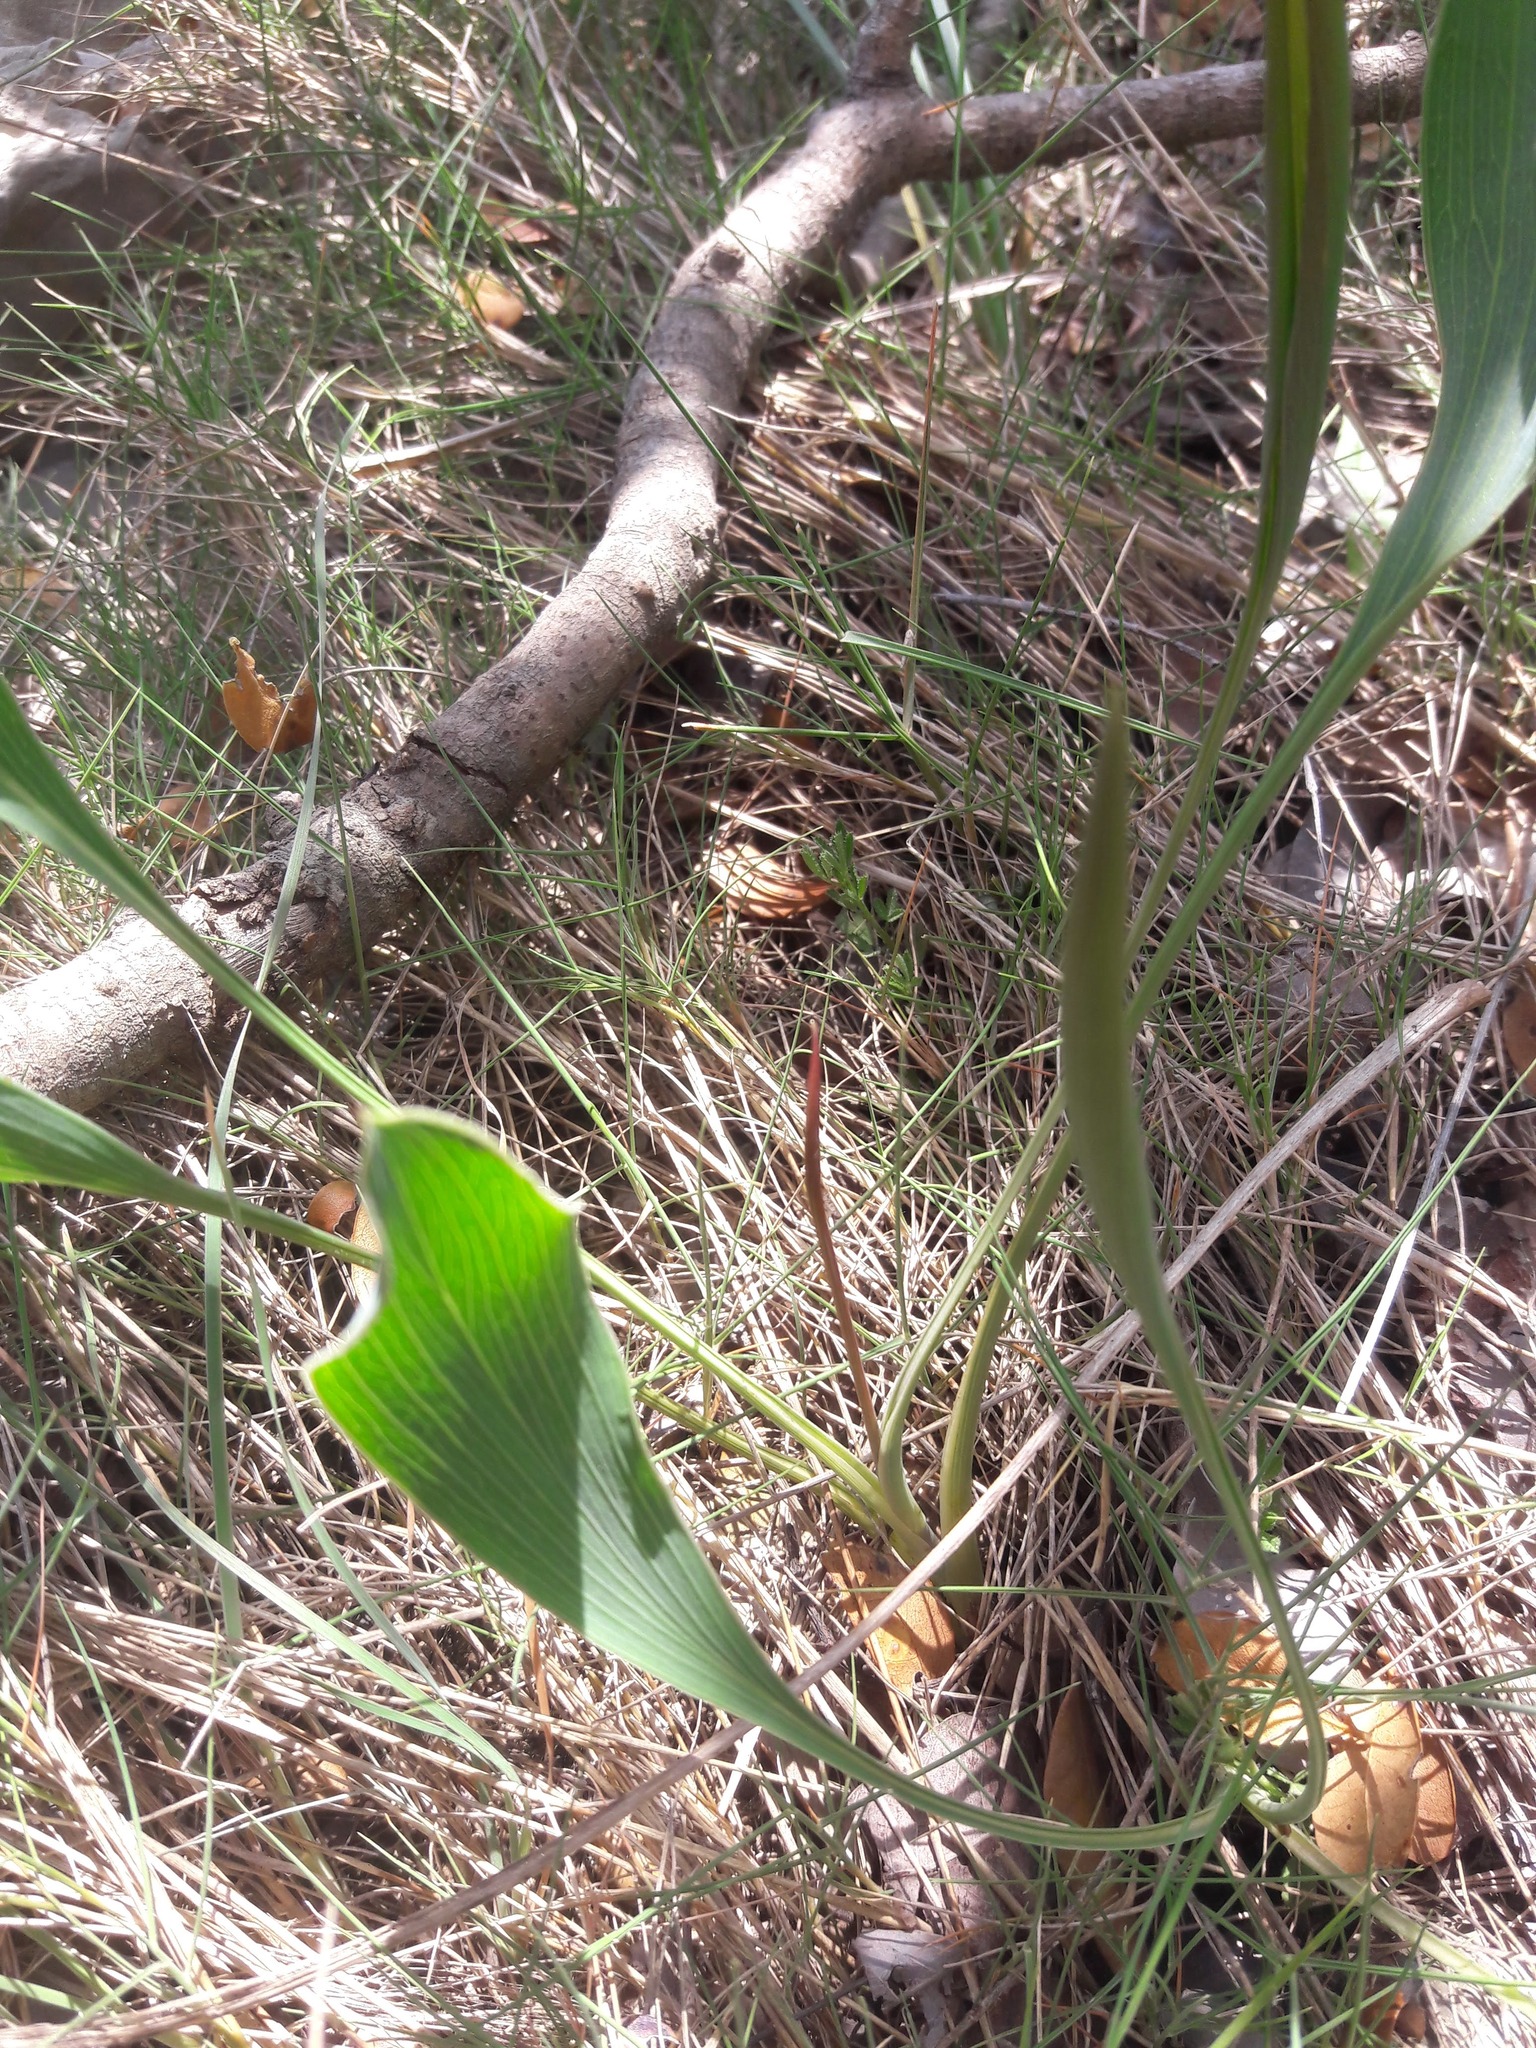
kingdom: Plantae
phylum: Tracheophyta
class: Magnoliopsida
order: Apiales
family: Apiaceae
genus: Bupleurum
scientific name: Bupleurum rigidum
